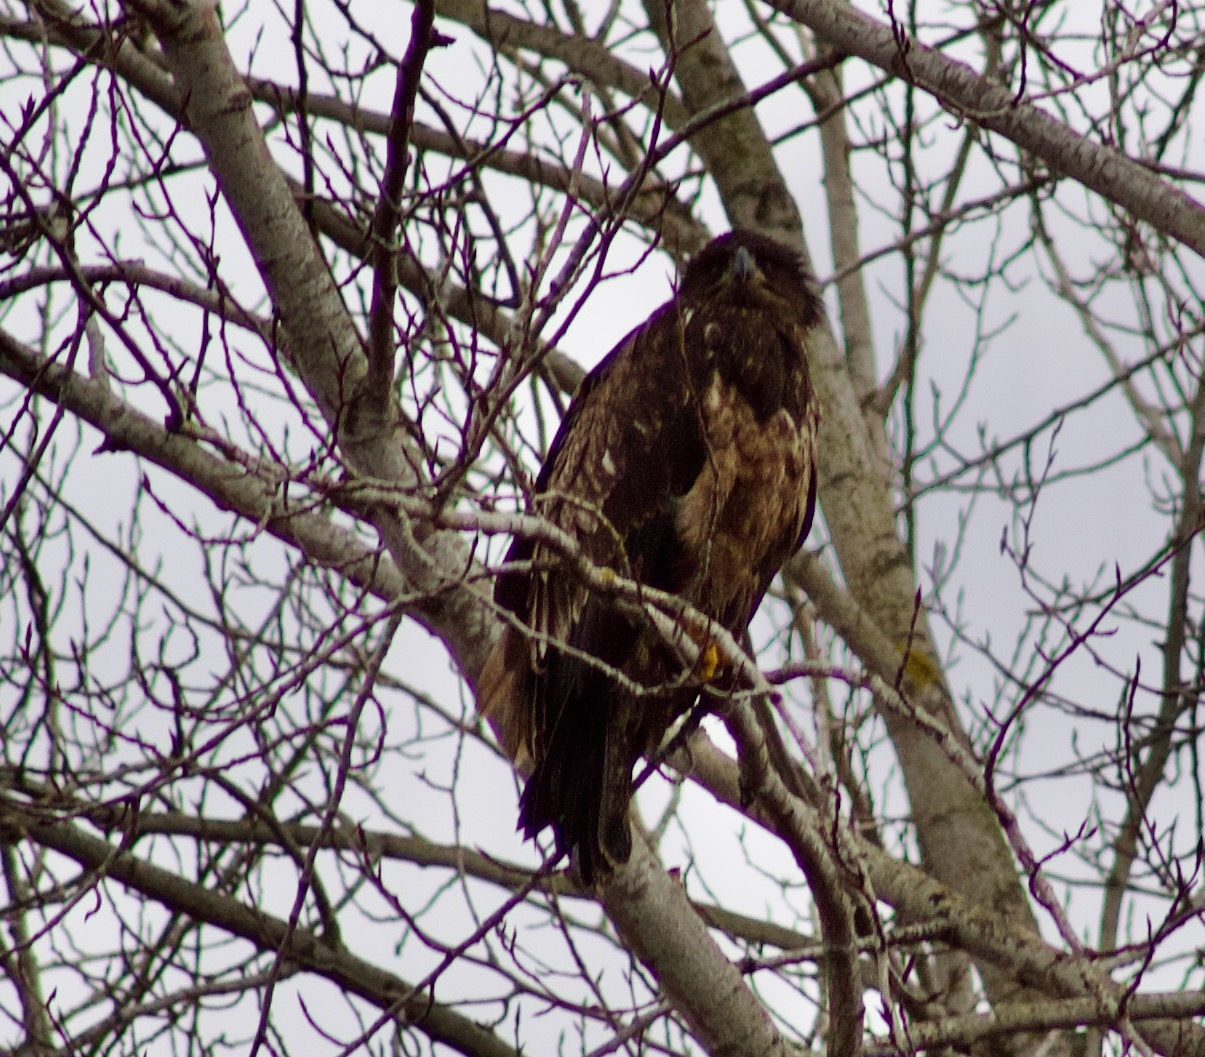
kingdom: Animalia
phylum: Chordata
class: Aves
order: Accipitriformes
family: Accipitridae
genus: Haliaeetus
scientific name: Haliaeetus leucocephalus
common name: Bald eagle
